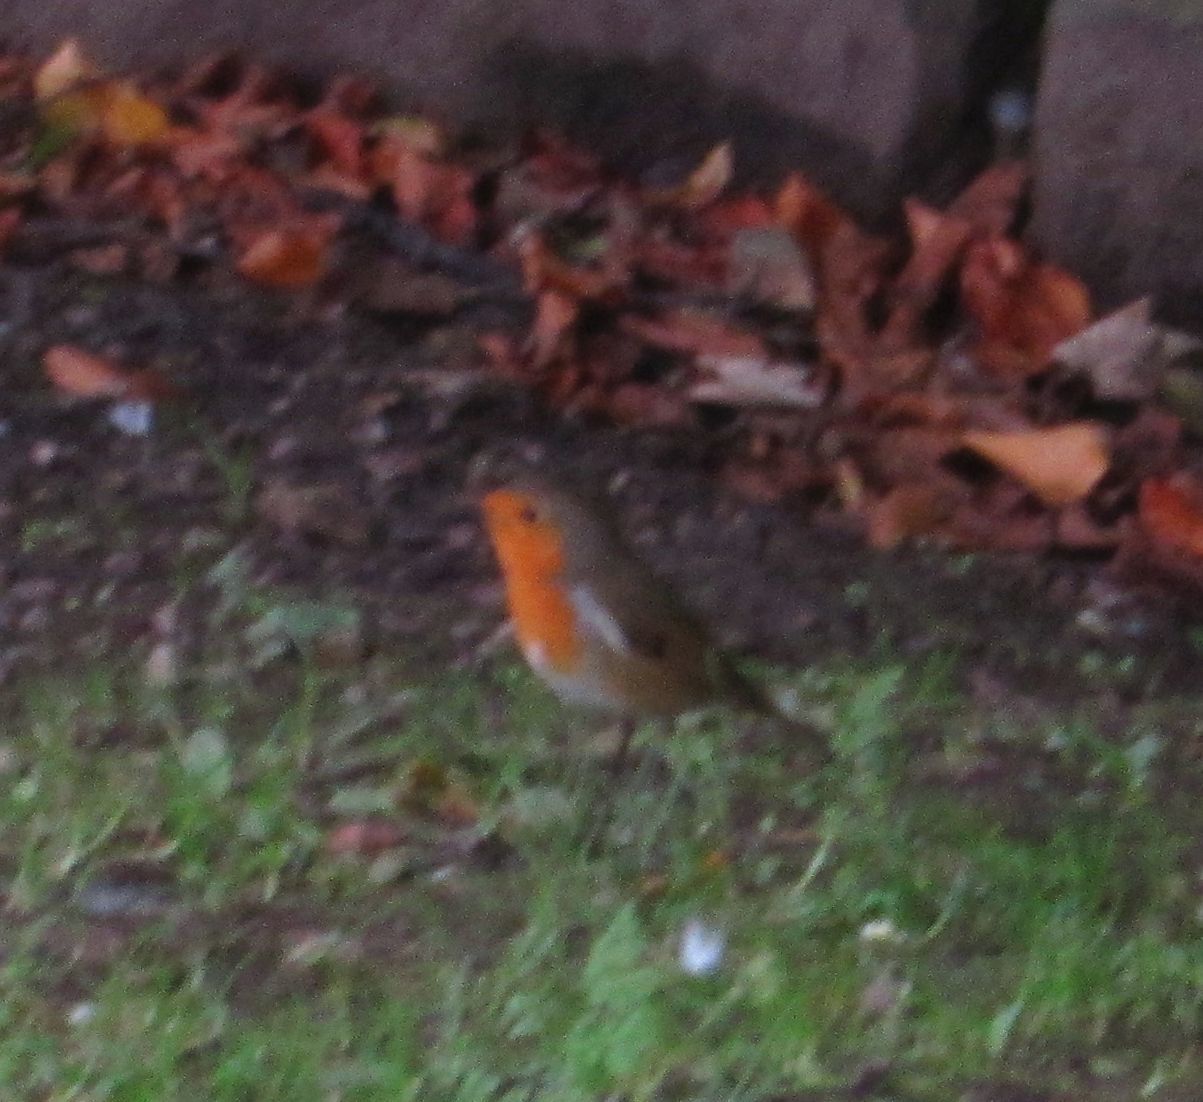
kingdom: Animalia
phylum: Chordata
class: Aves
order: Passeriformes
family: Muscicapidae
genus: Erithacus
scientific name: Erithacus rubecula
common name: European robin
